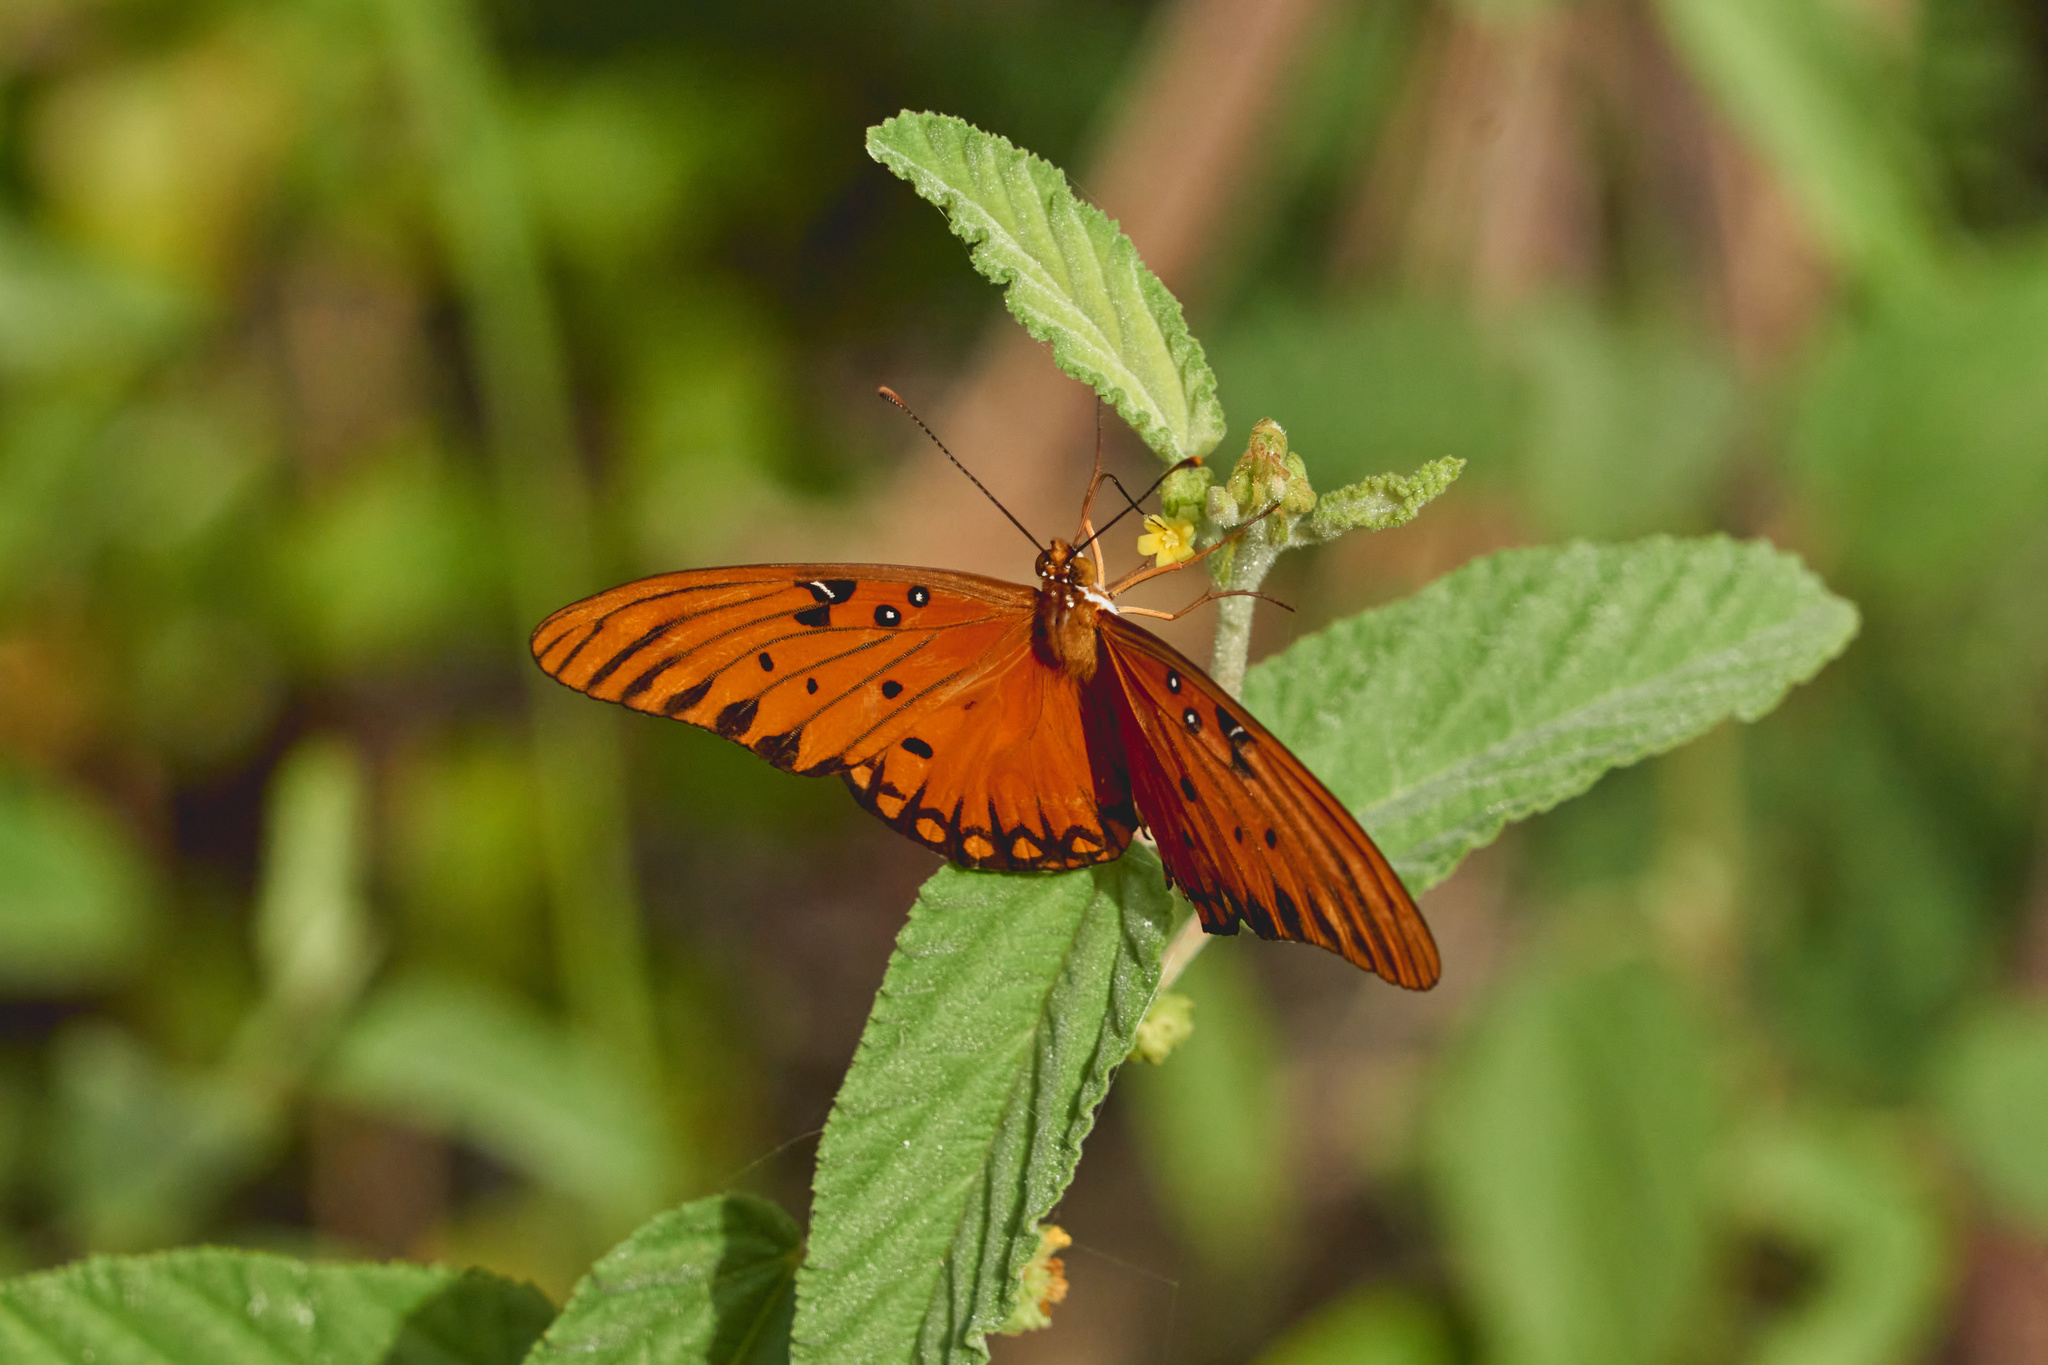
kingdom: Animalia
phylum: Arthropoda
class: Insecta
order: Lepidoptera
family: Nymphalidae
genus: Dione
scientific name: Dione vanillae
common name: Gulf fritillary
